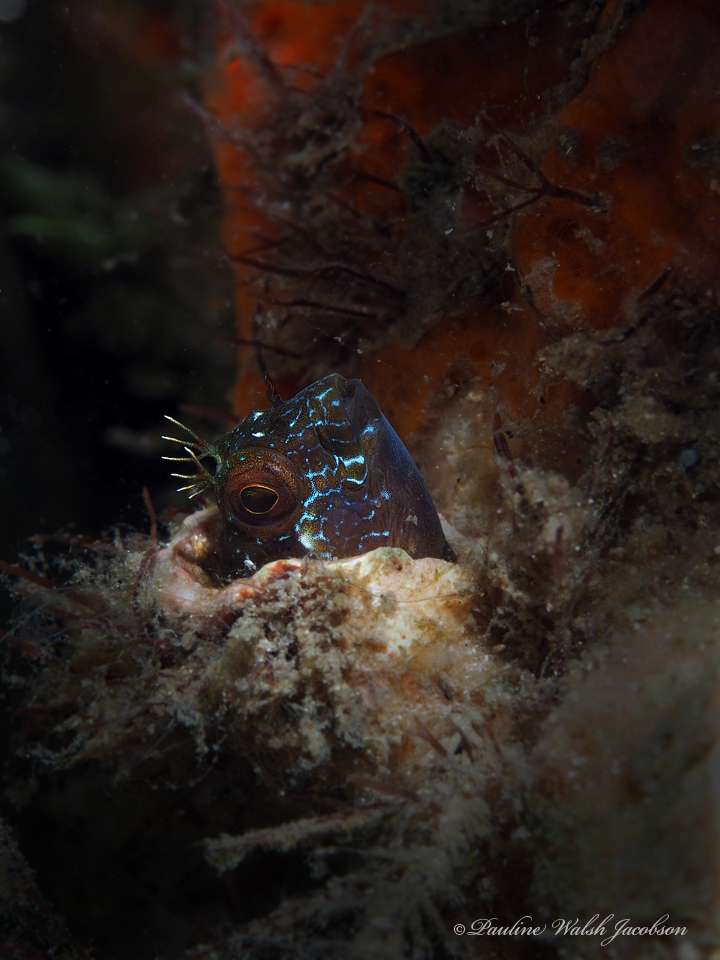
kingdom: Animalia
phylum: Chordata
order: Perciformes
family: Blenniidae
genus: Parablennius
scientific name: Parablennius marmoreus
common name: Seaweed blenny
